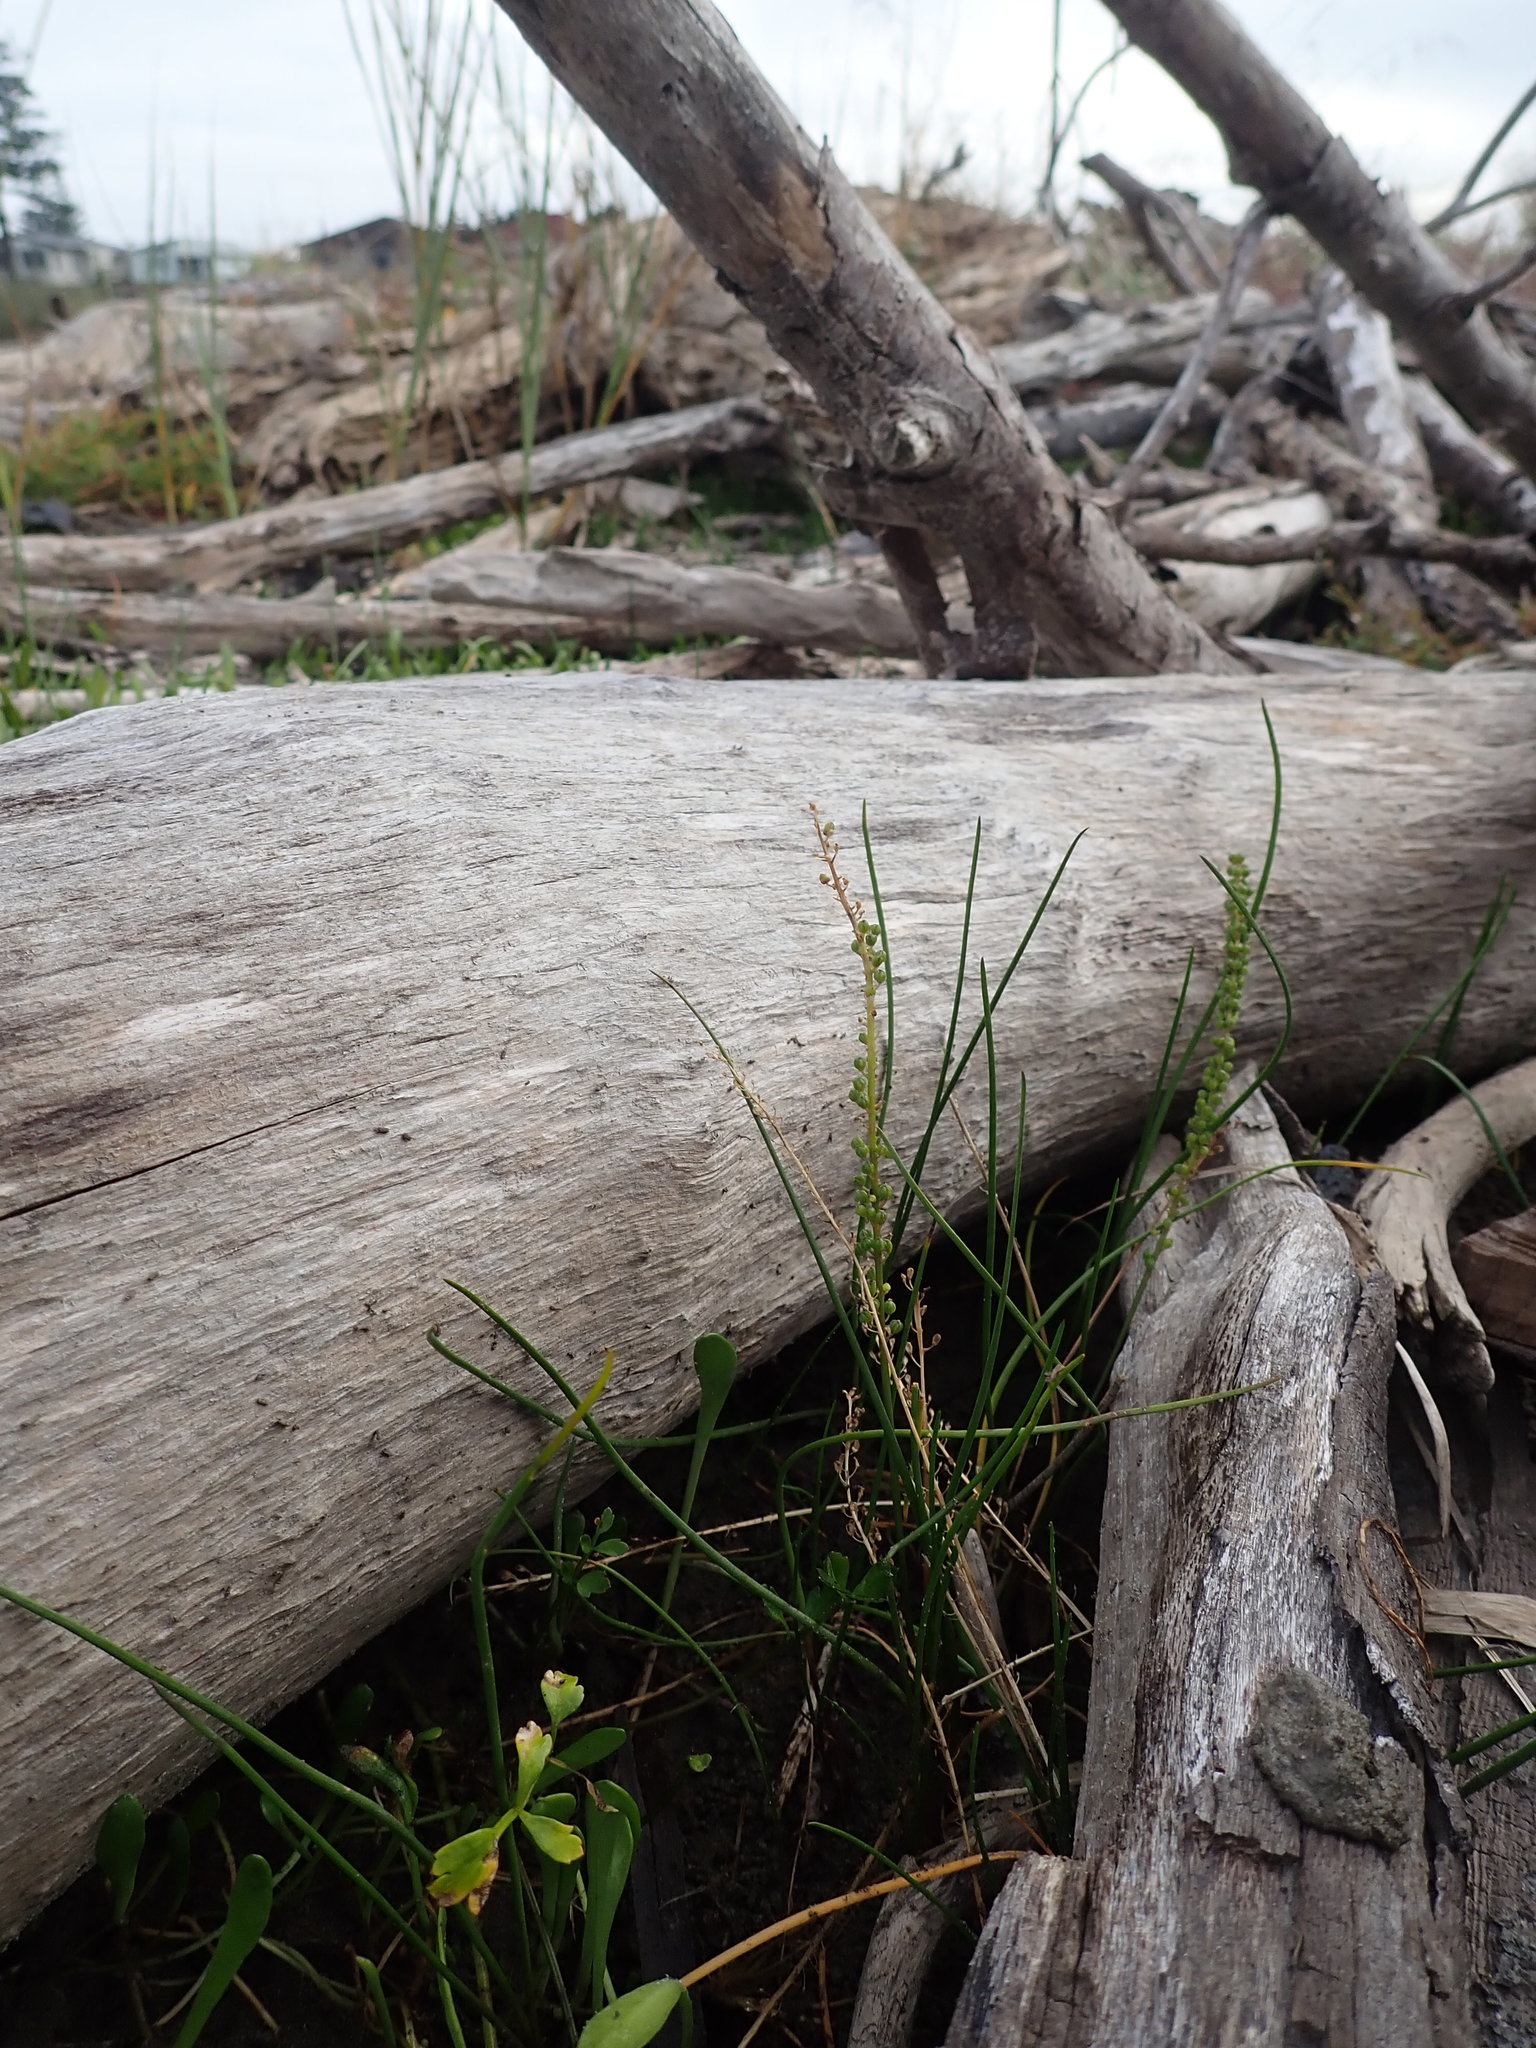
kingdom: Plantae
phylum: Tracheophyta
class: Liliopsida
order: Alismatales
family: Juncaginaceae
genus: Triglochin
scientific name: Triglochin striata
